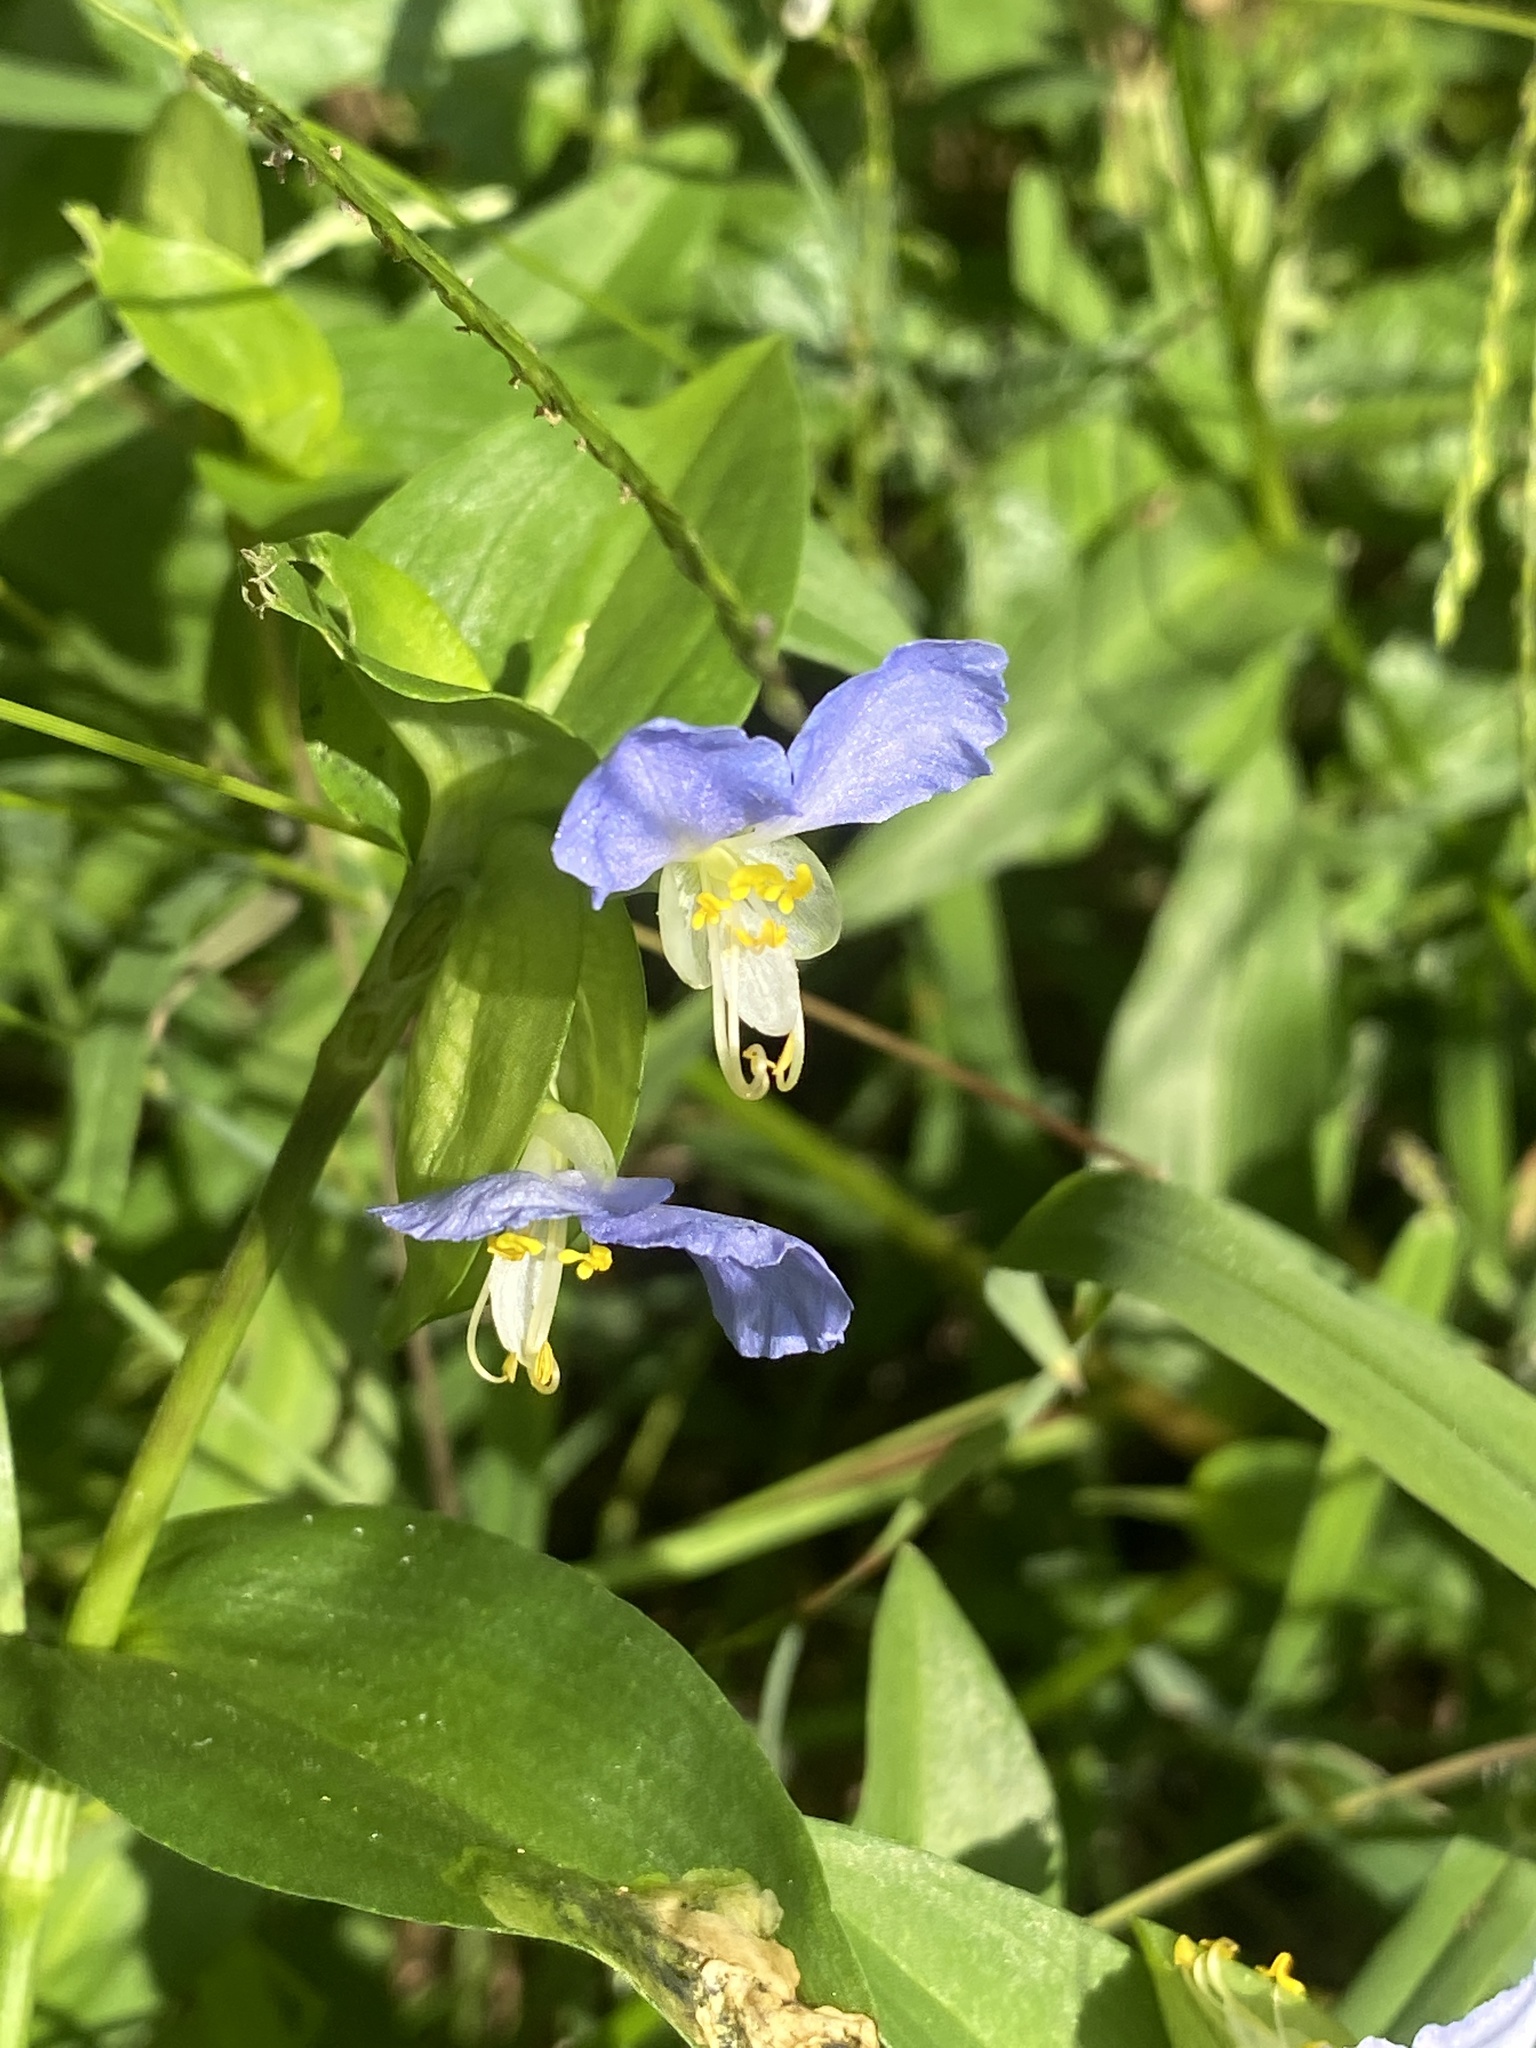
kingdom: Plantae
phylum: Tracheophyta
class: Liliopsida
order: Commelinales
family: Commelinaceae
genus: Commelina
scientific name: Commelina communis
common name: Asiatic dayflower
